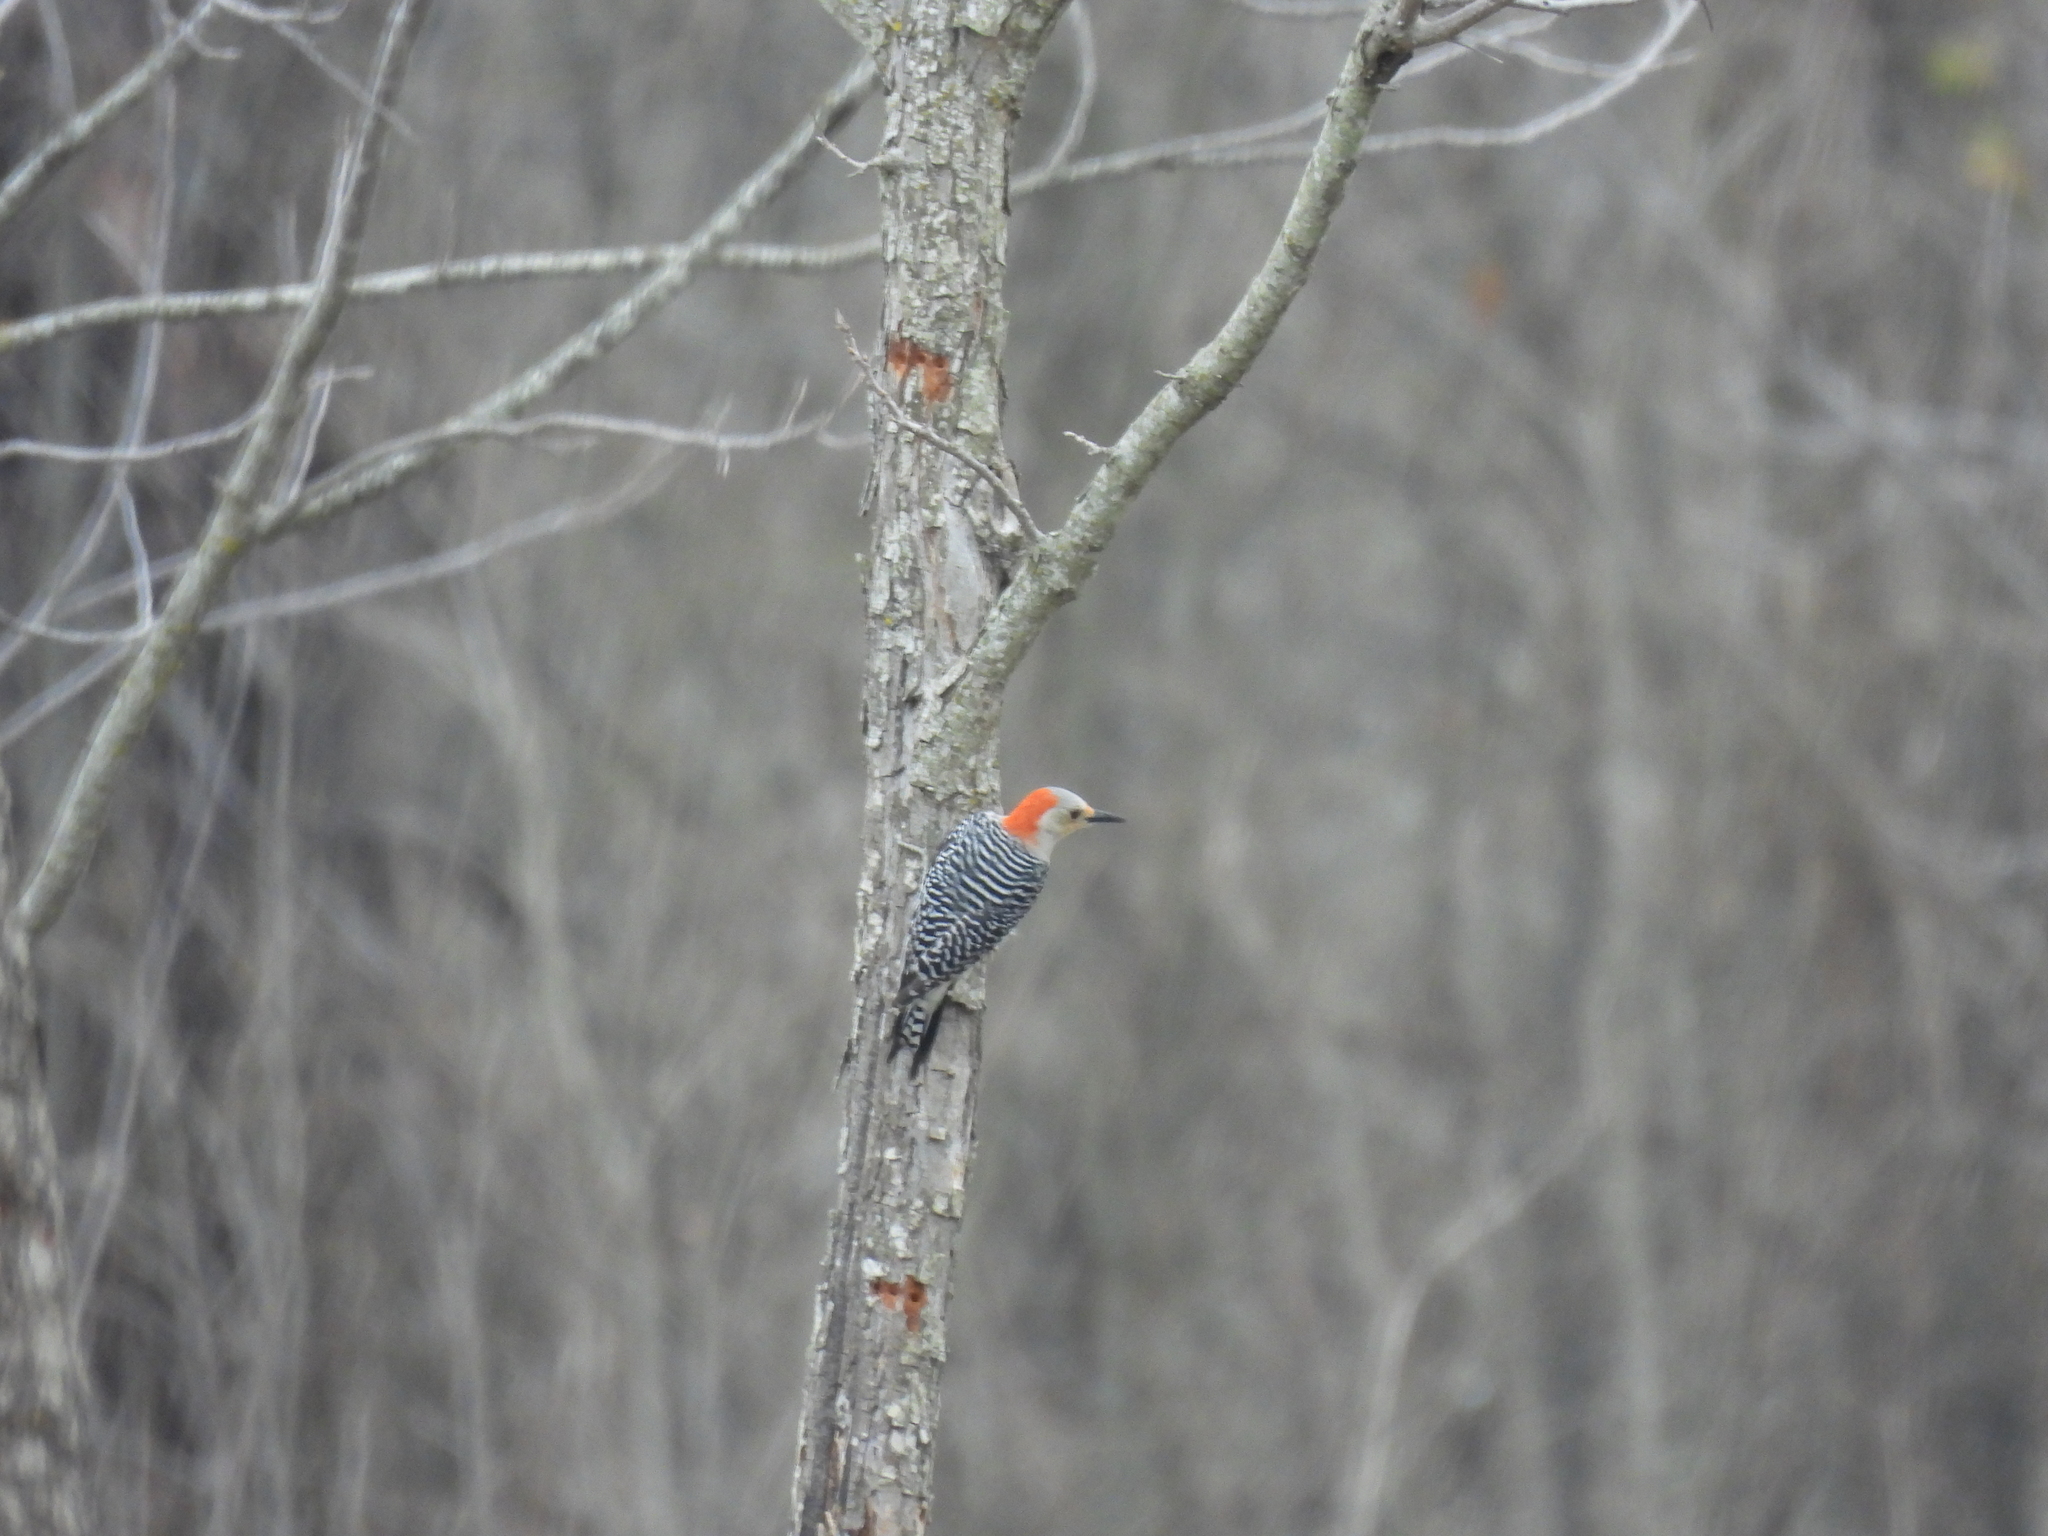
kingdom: Animalia
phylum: Chordata
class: Aves
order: Piciformes
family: Picidae
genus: Melanerpes
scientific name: Melanerpes carolinus
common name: Red-bellied woodpecker
